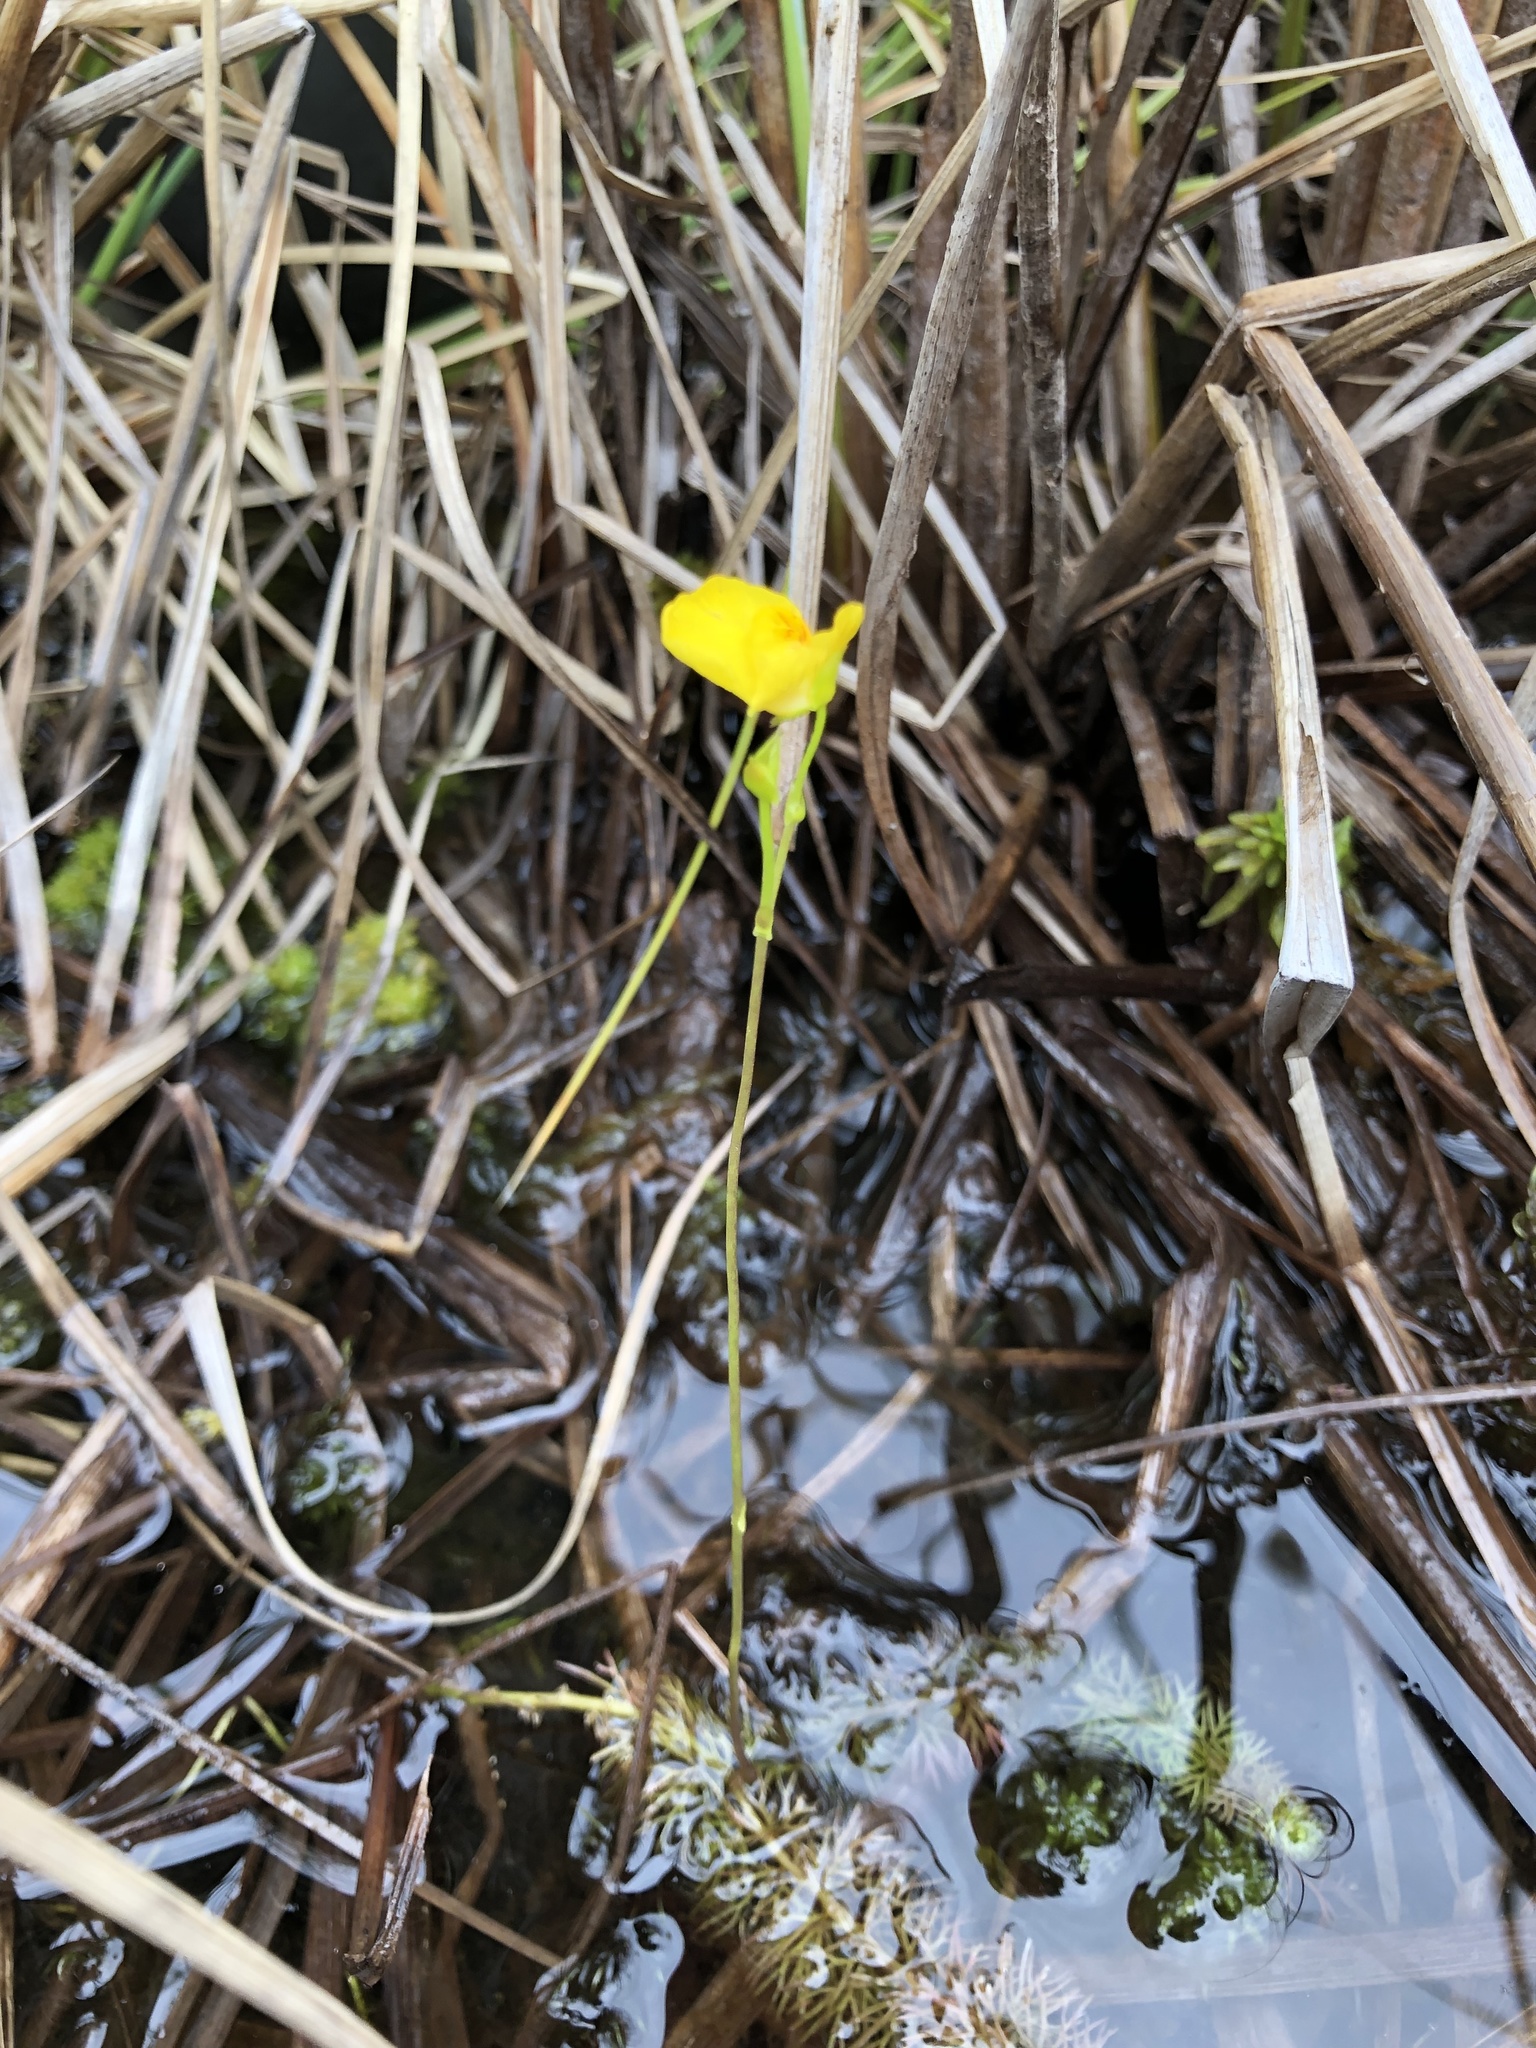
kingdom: Plantae
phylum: Tracheophyta
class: Magnoliopsida
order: Lamiales
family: Lentibulariaceae
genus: Utricularia
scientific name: Utricularia intermedia
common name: Intermediate bladderwort
